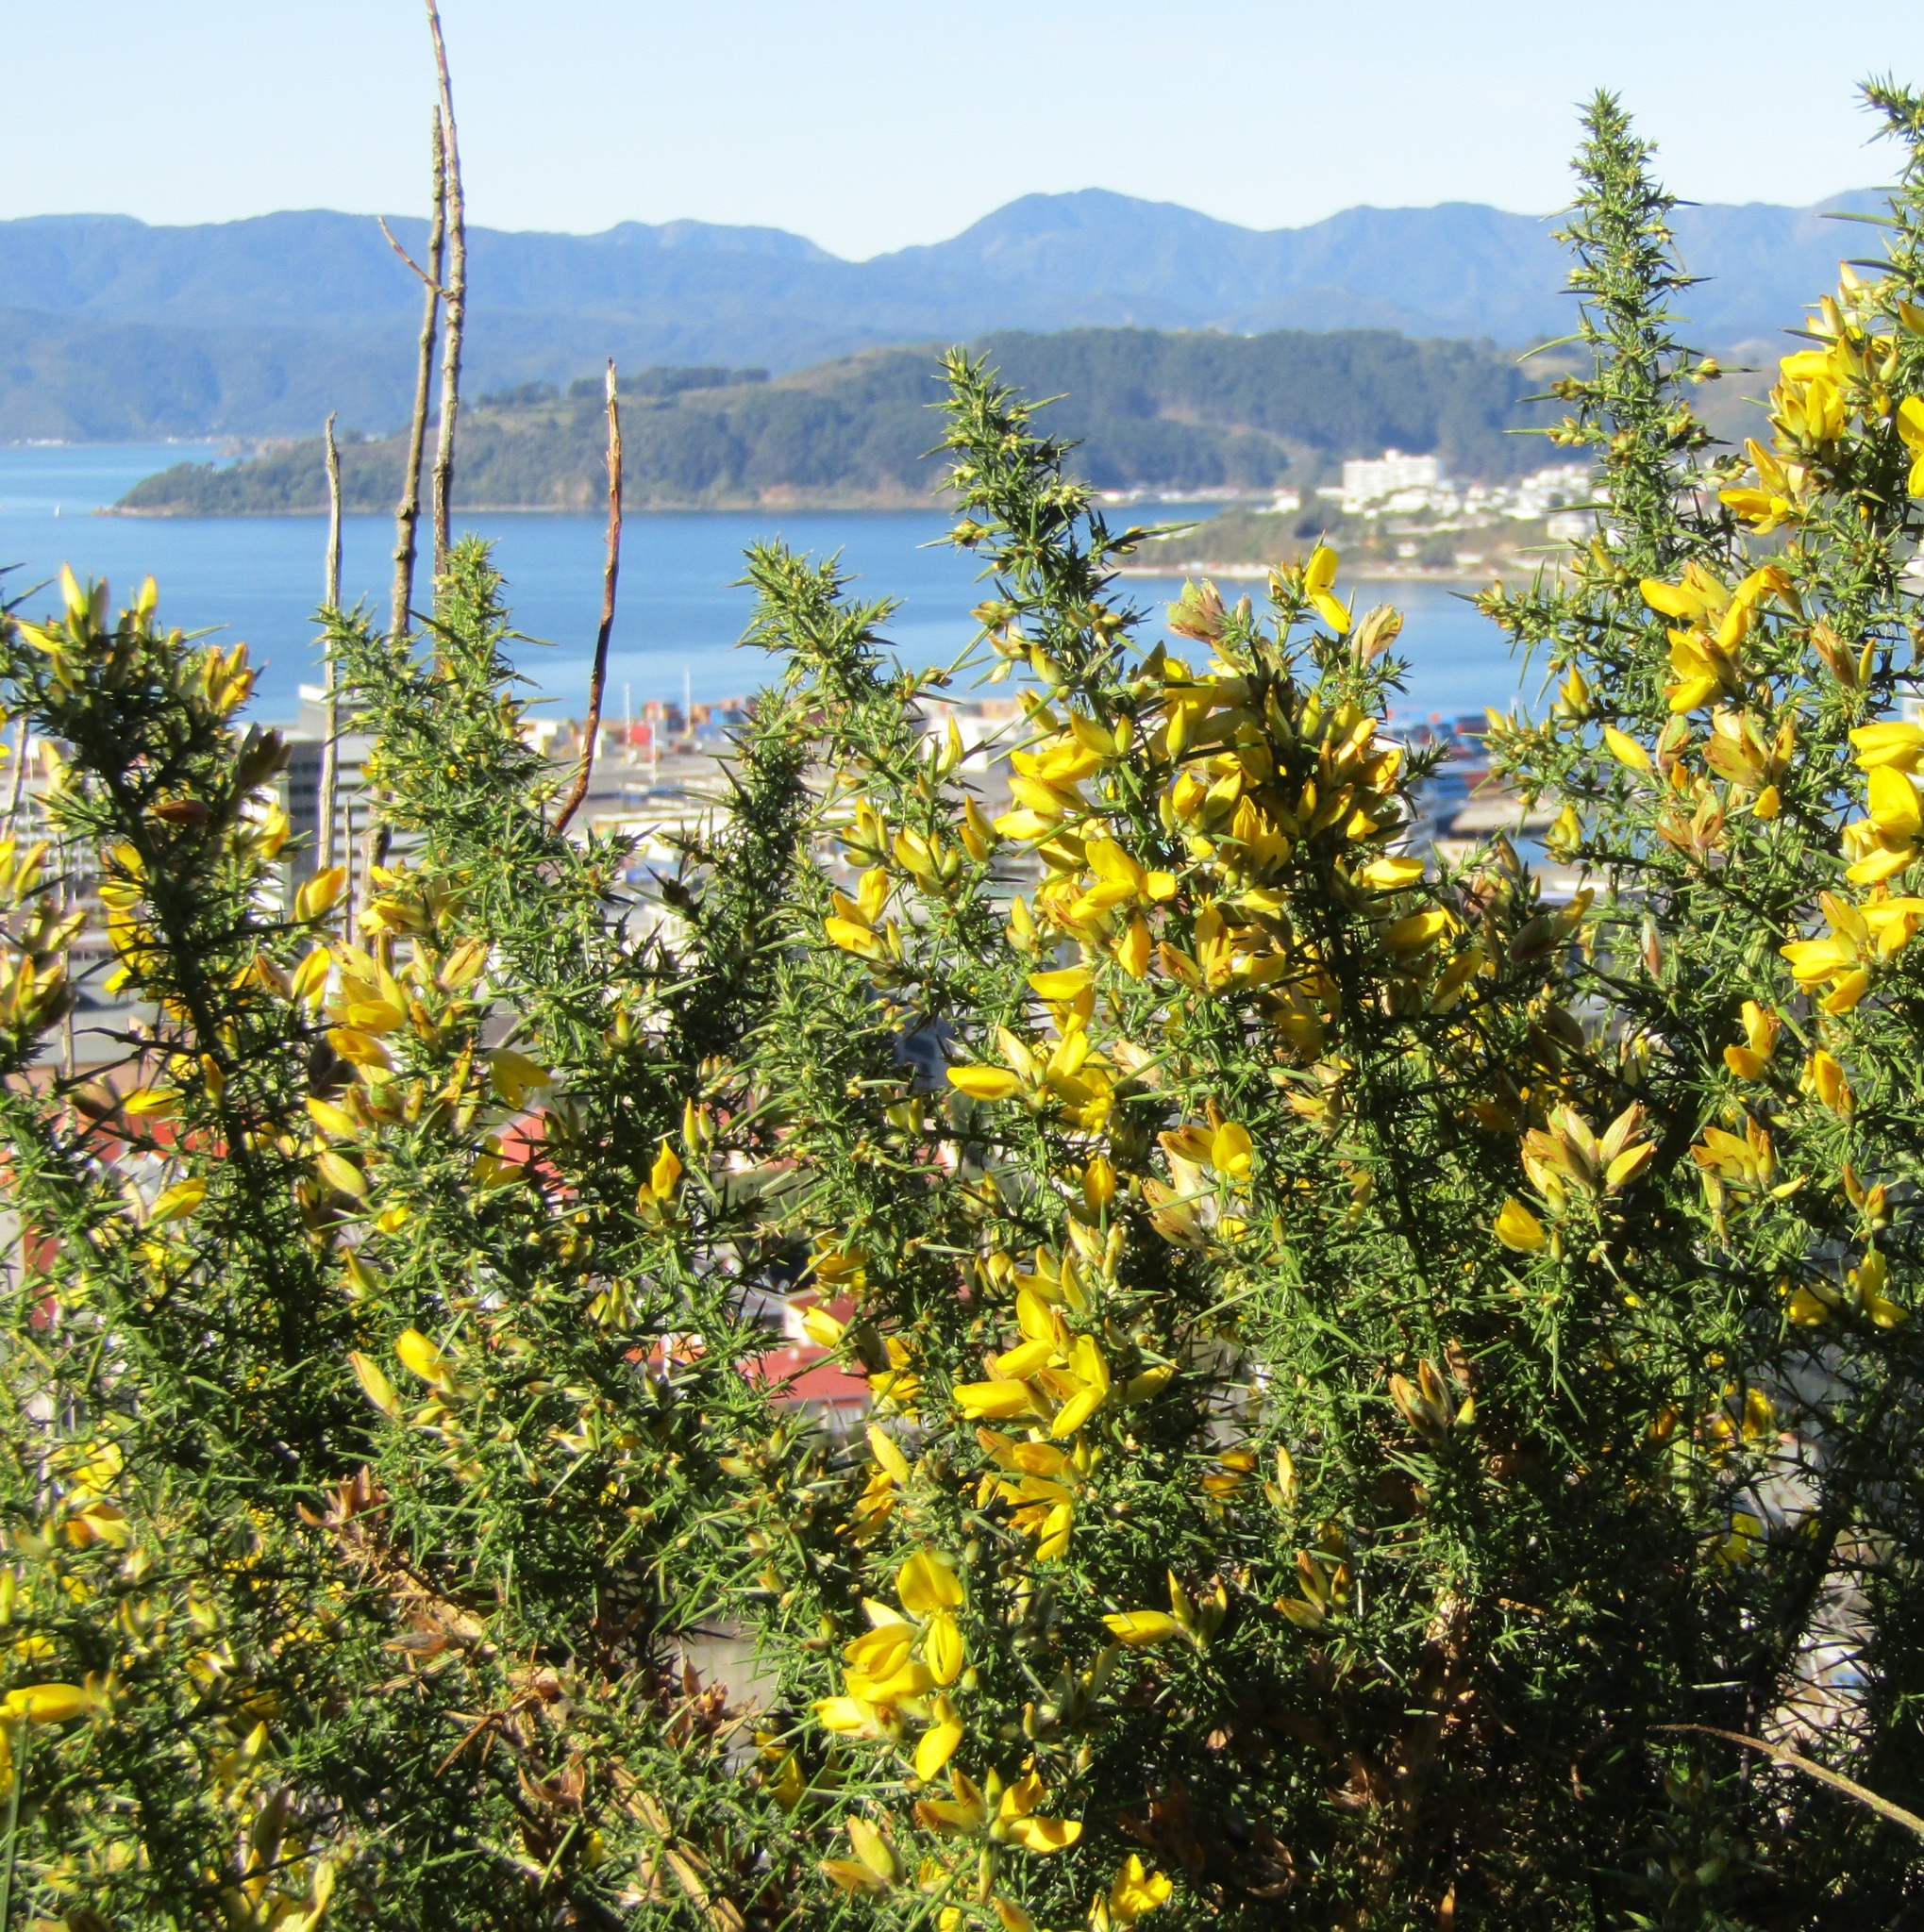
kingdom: Plantae
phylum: Tracheophyta
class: Magnoliopsida
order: Fabales
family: Fabaceae
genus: Ulex
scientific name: Ulex europaeus
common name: Common gorse
